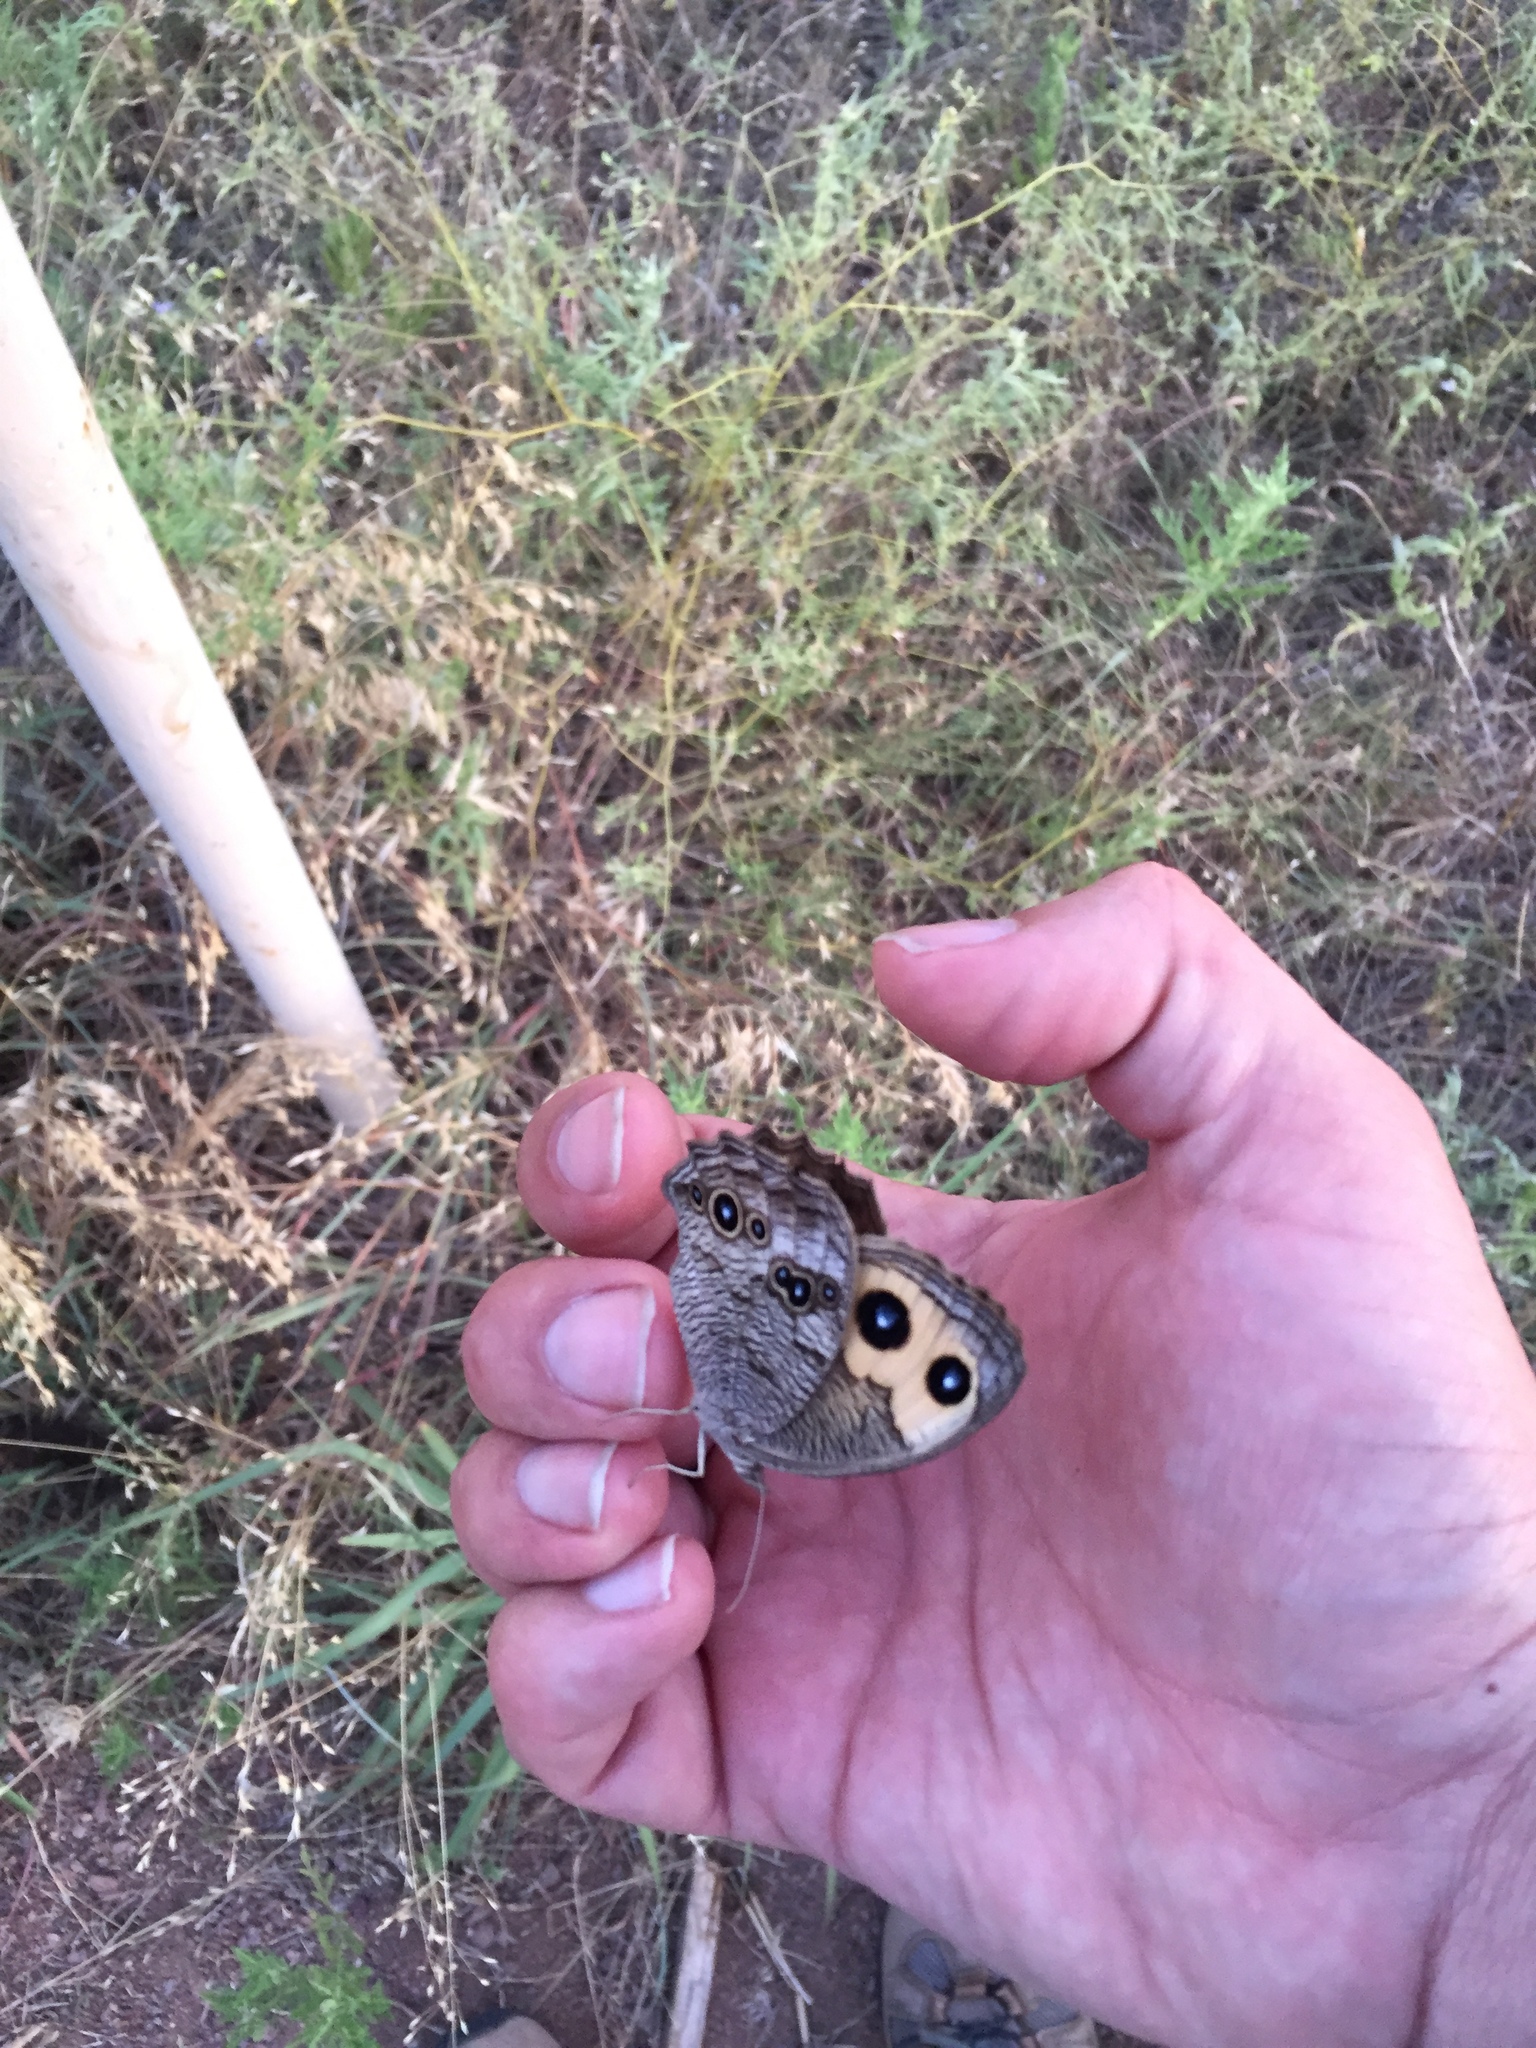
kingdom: Animalia
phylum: Arthropoda
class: Insecta
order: Lepidoptera
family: Nymphalidae
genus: Cercyonis
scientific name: Cercyonis pegala
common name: Common wood-nymph
